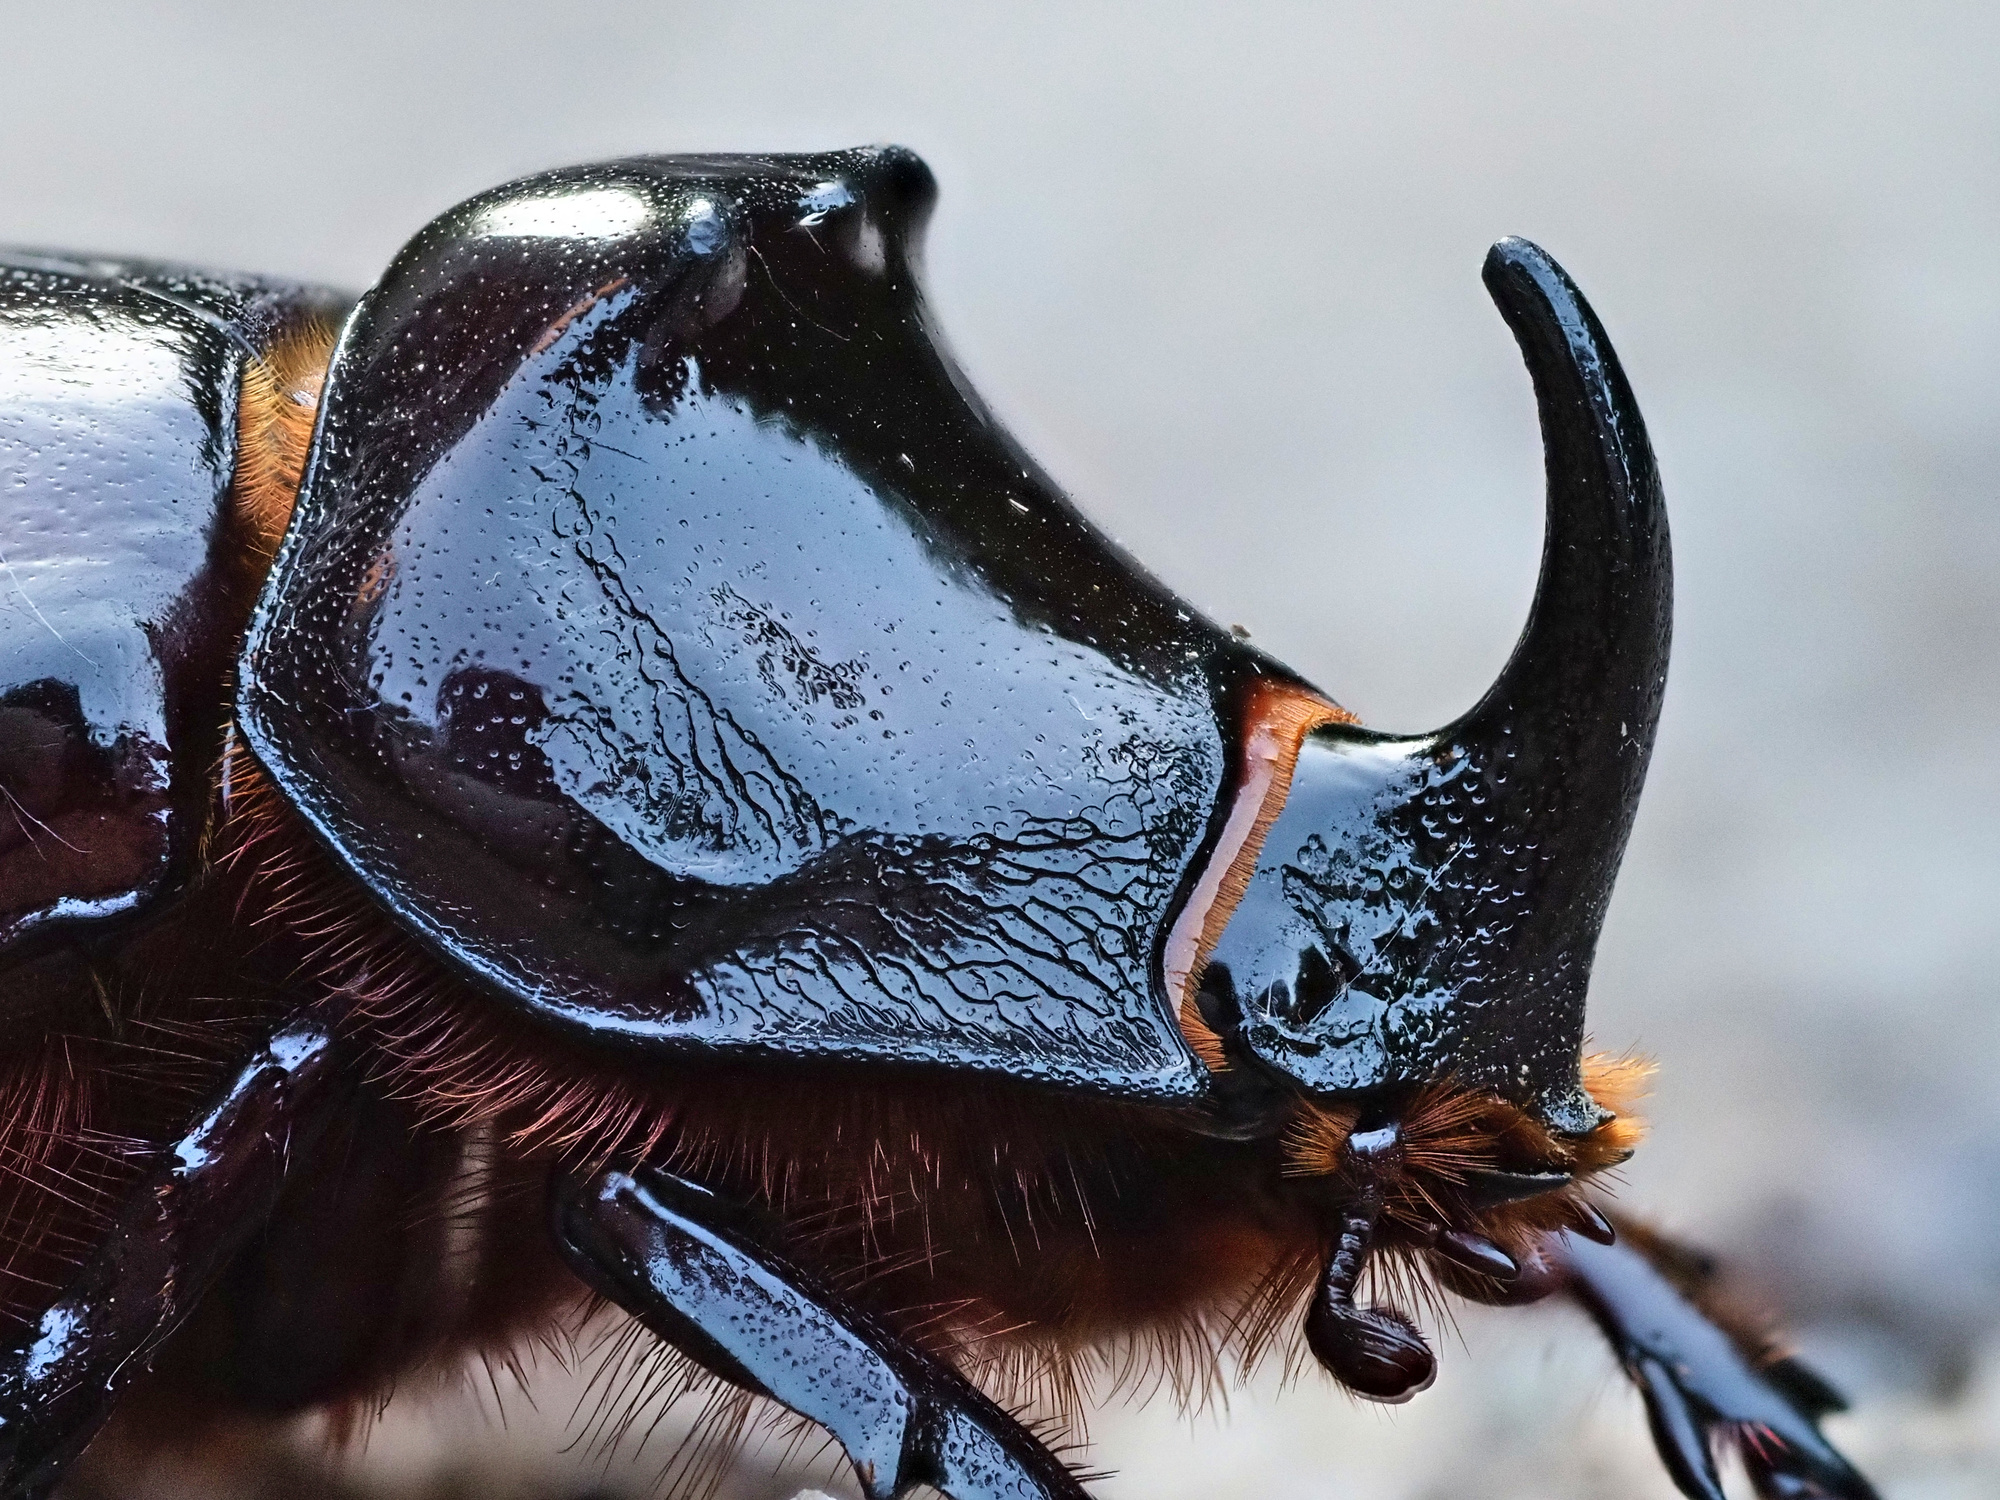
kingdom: Animalia
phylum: Arthropoda
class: Insecta
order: Coleoptera
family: Scarabaeidae
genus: Oryctes
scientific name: Oryctes nasicornis
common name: European rhinoceros beetle
